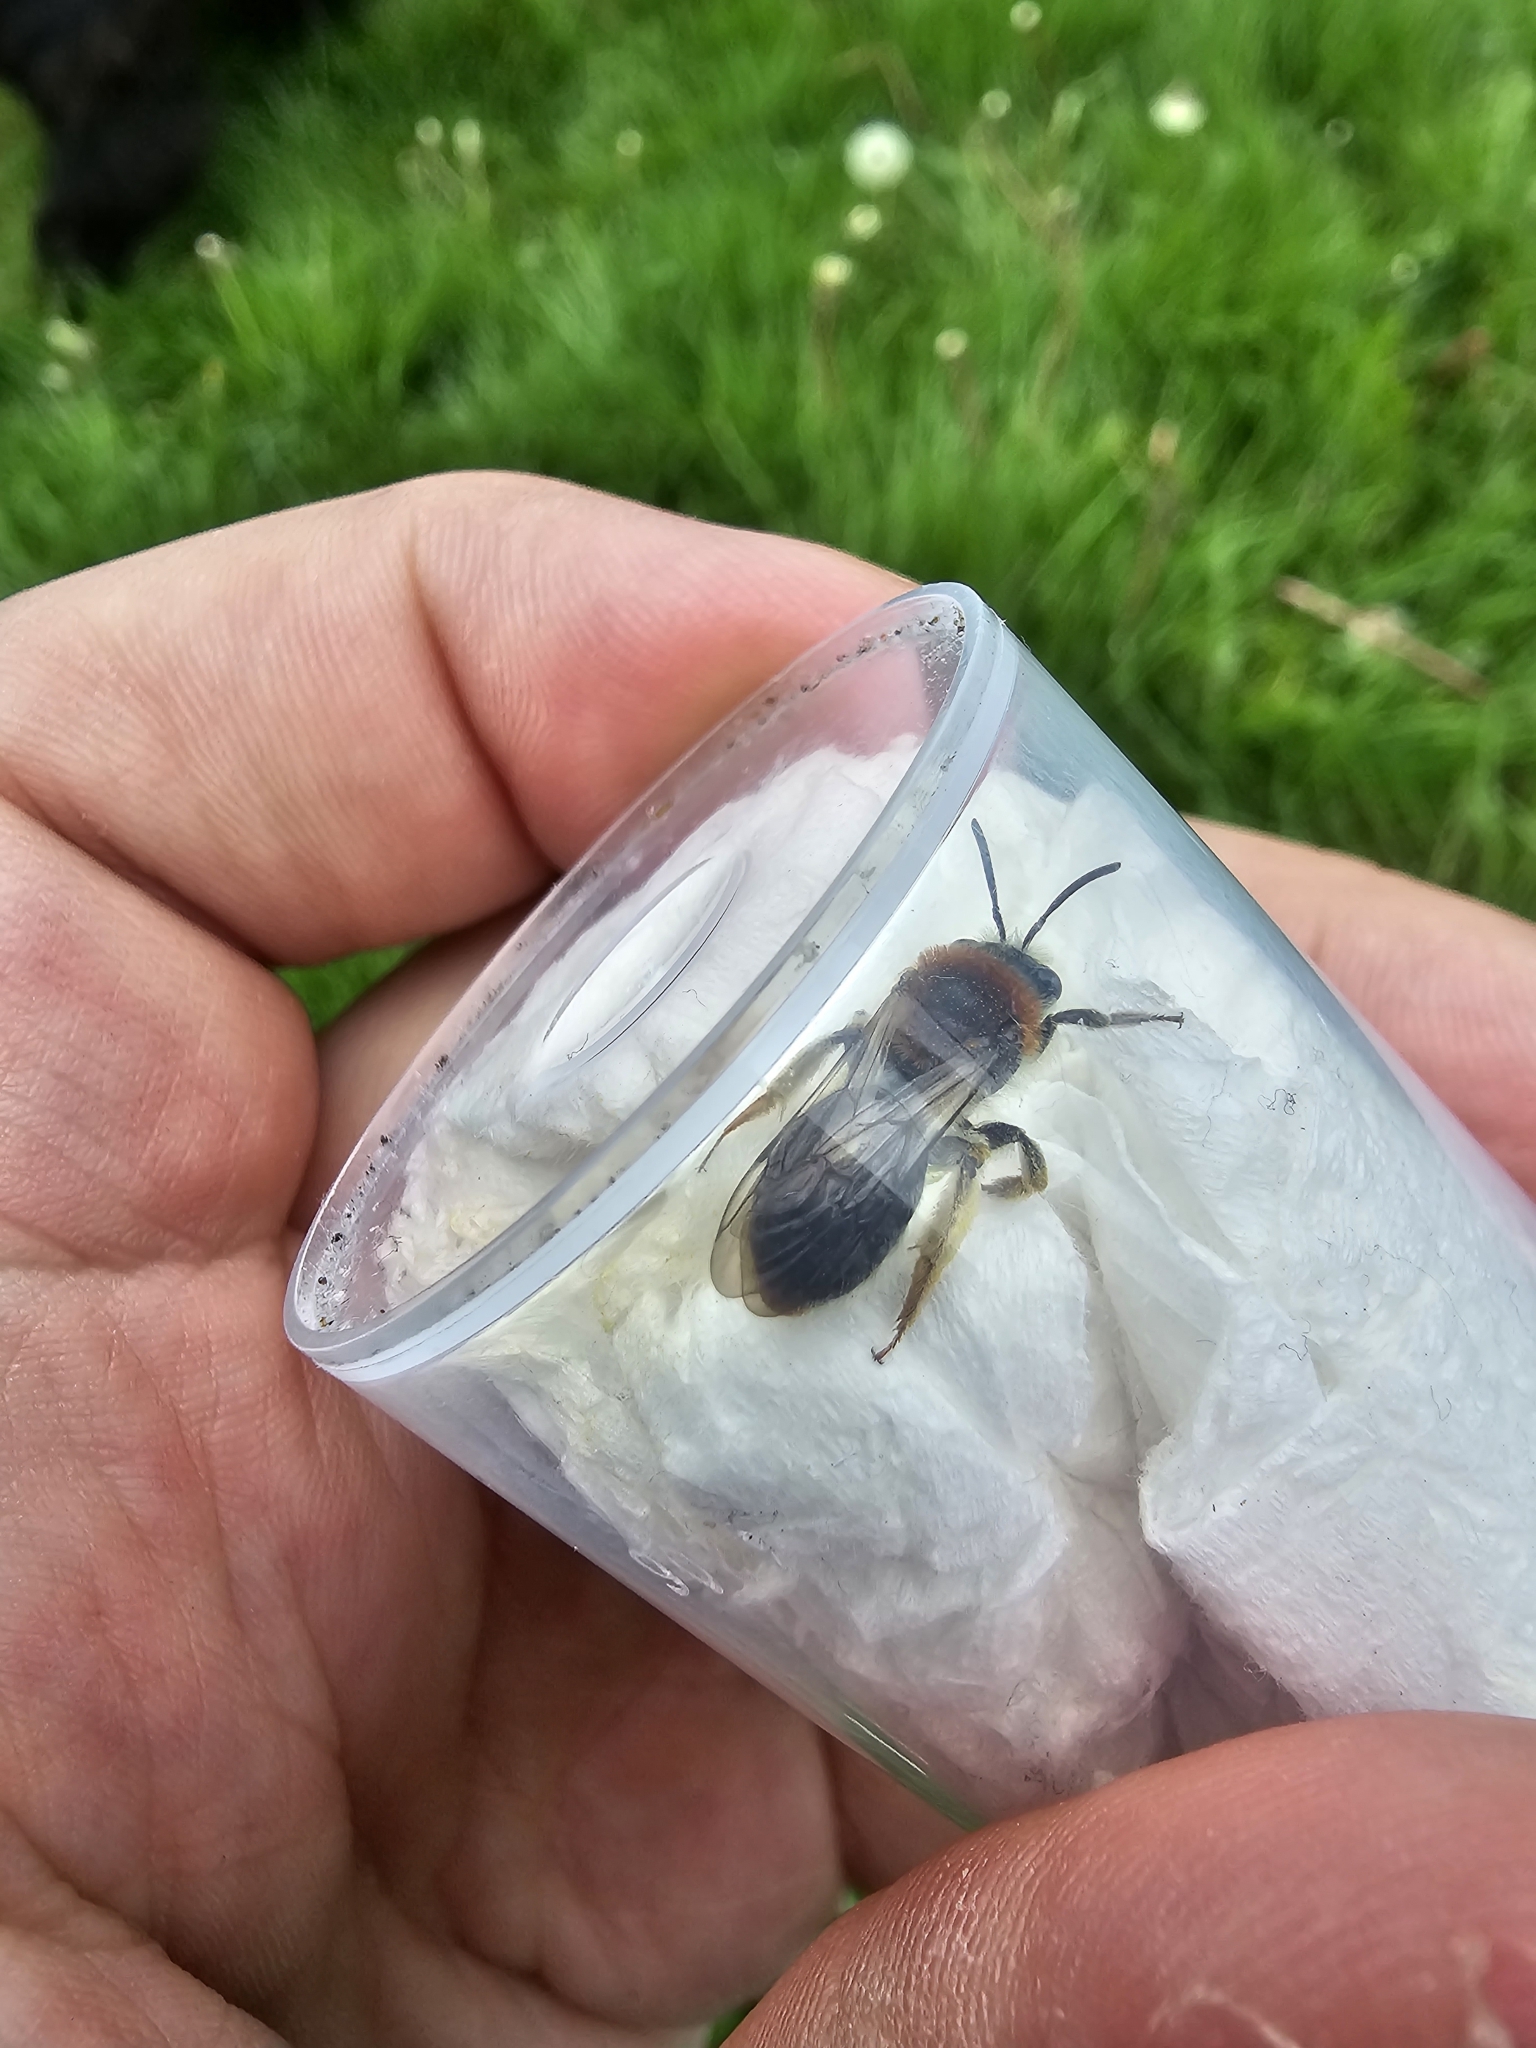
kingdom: Animalia
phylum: Arthropoda
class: Insecta
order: Hymenoptera
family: Andrenidae
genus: Andrena
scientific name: Andrena haemorrhoa
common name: Early mining bee
